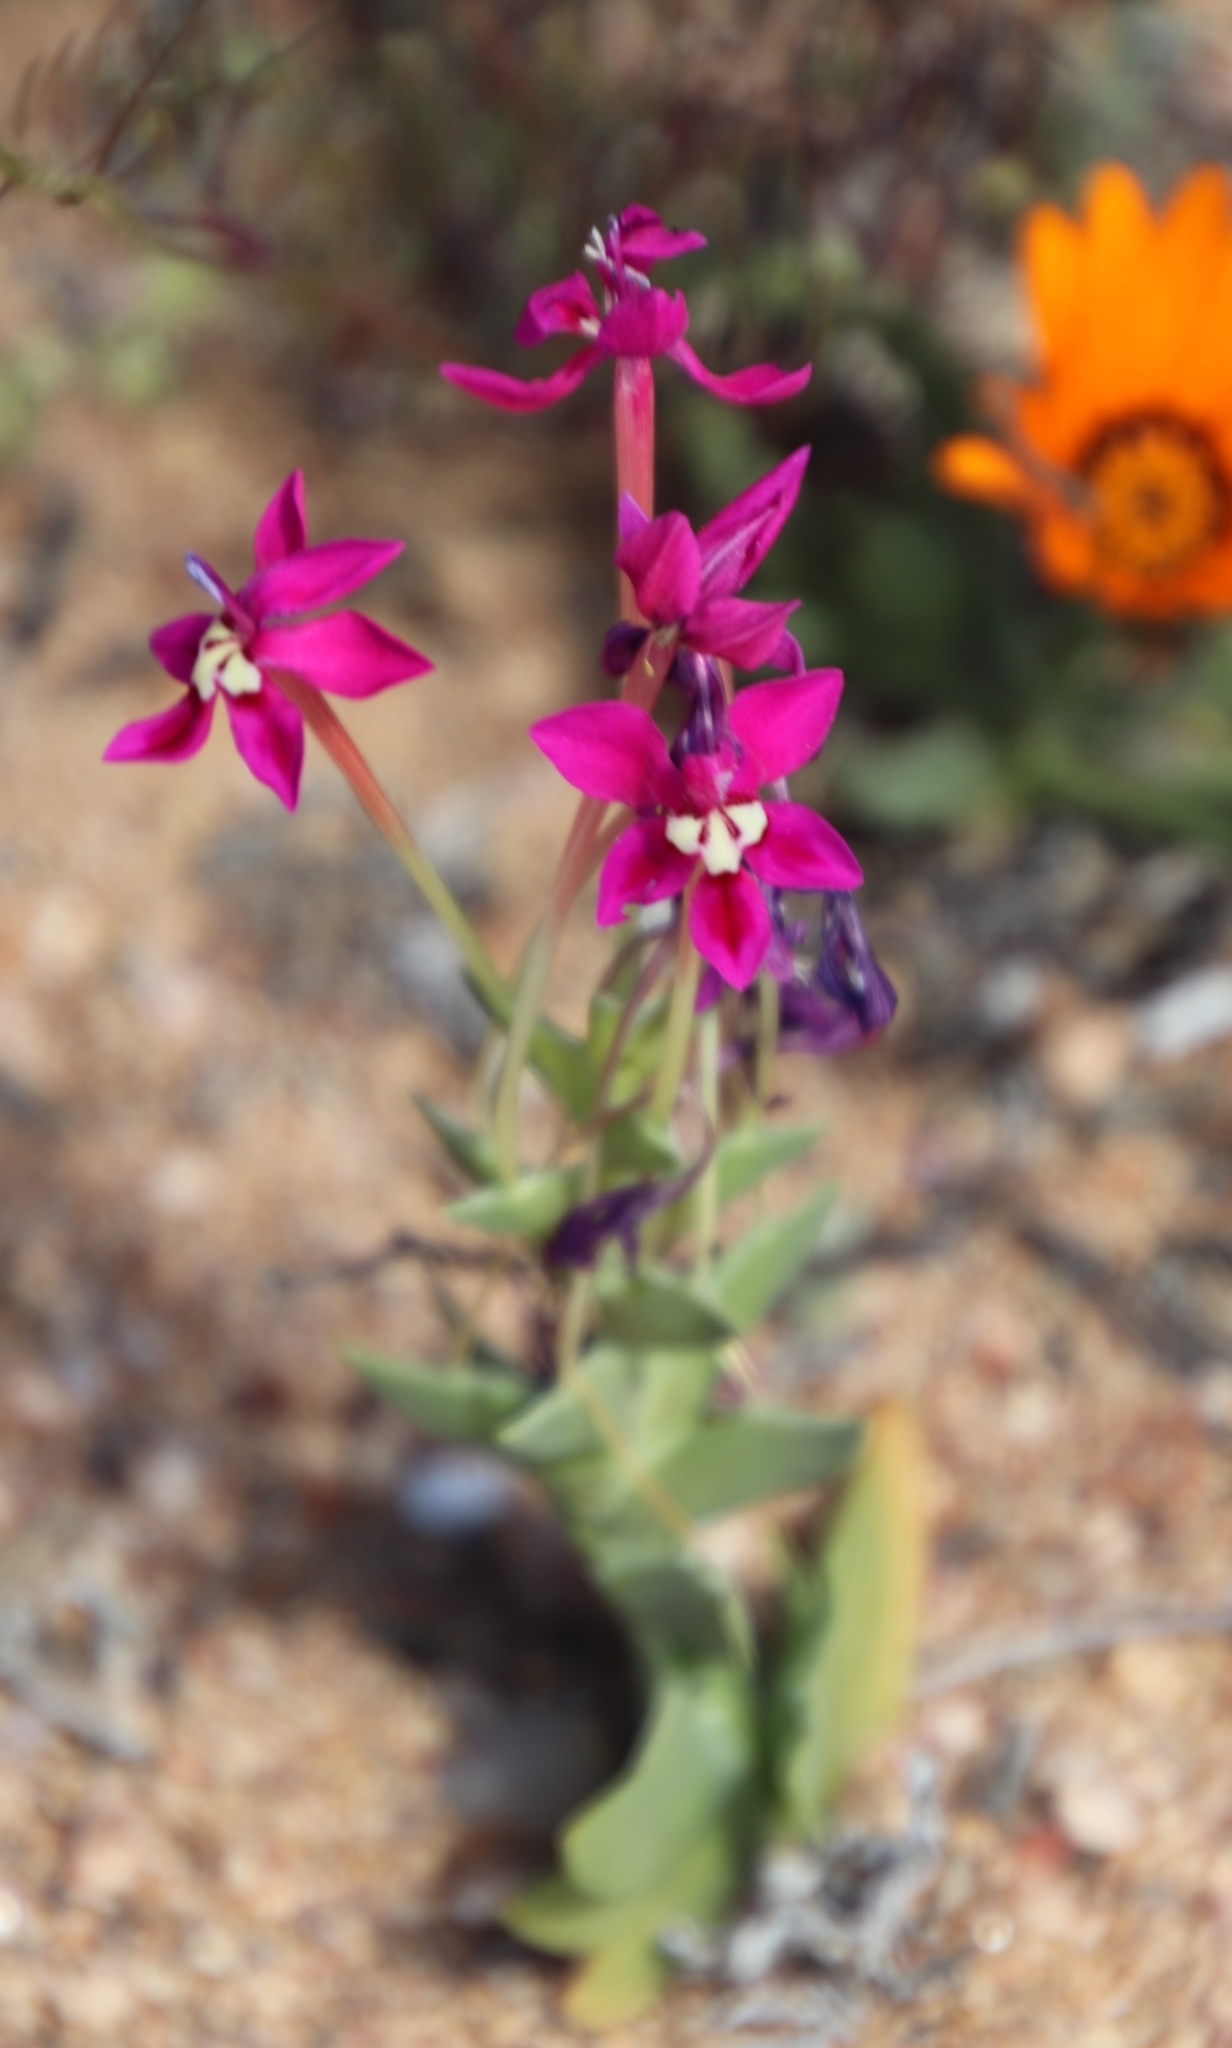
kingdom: Plantae
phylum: Tracheophyta
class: Liliopsida
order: Asparagales
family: Iridaceae
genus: Lapeirousia
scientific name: Lapeirousia silenoides
